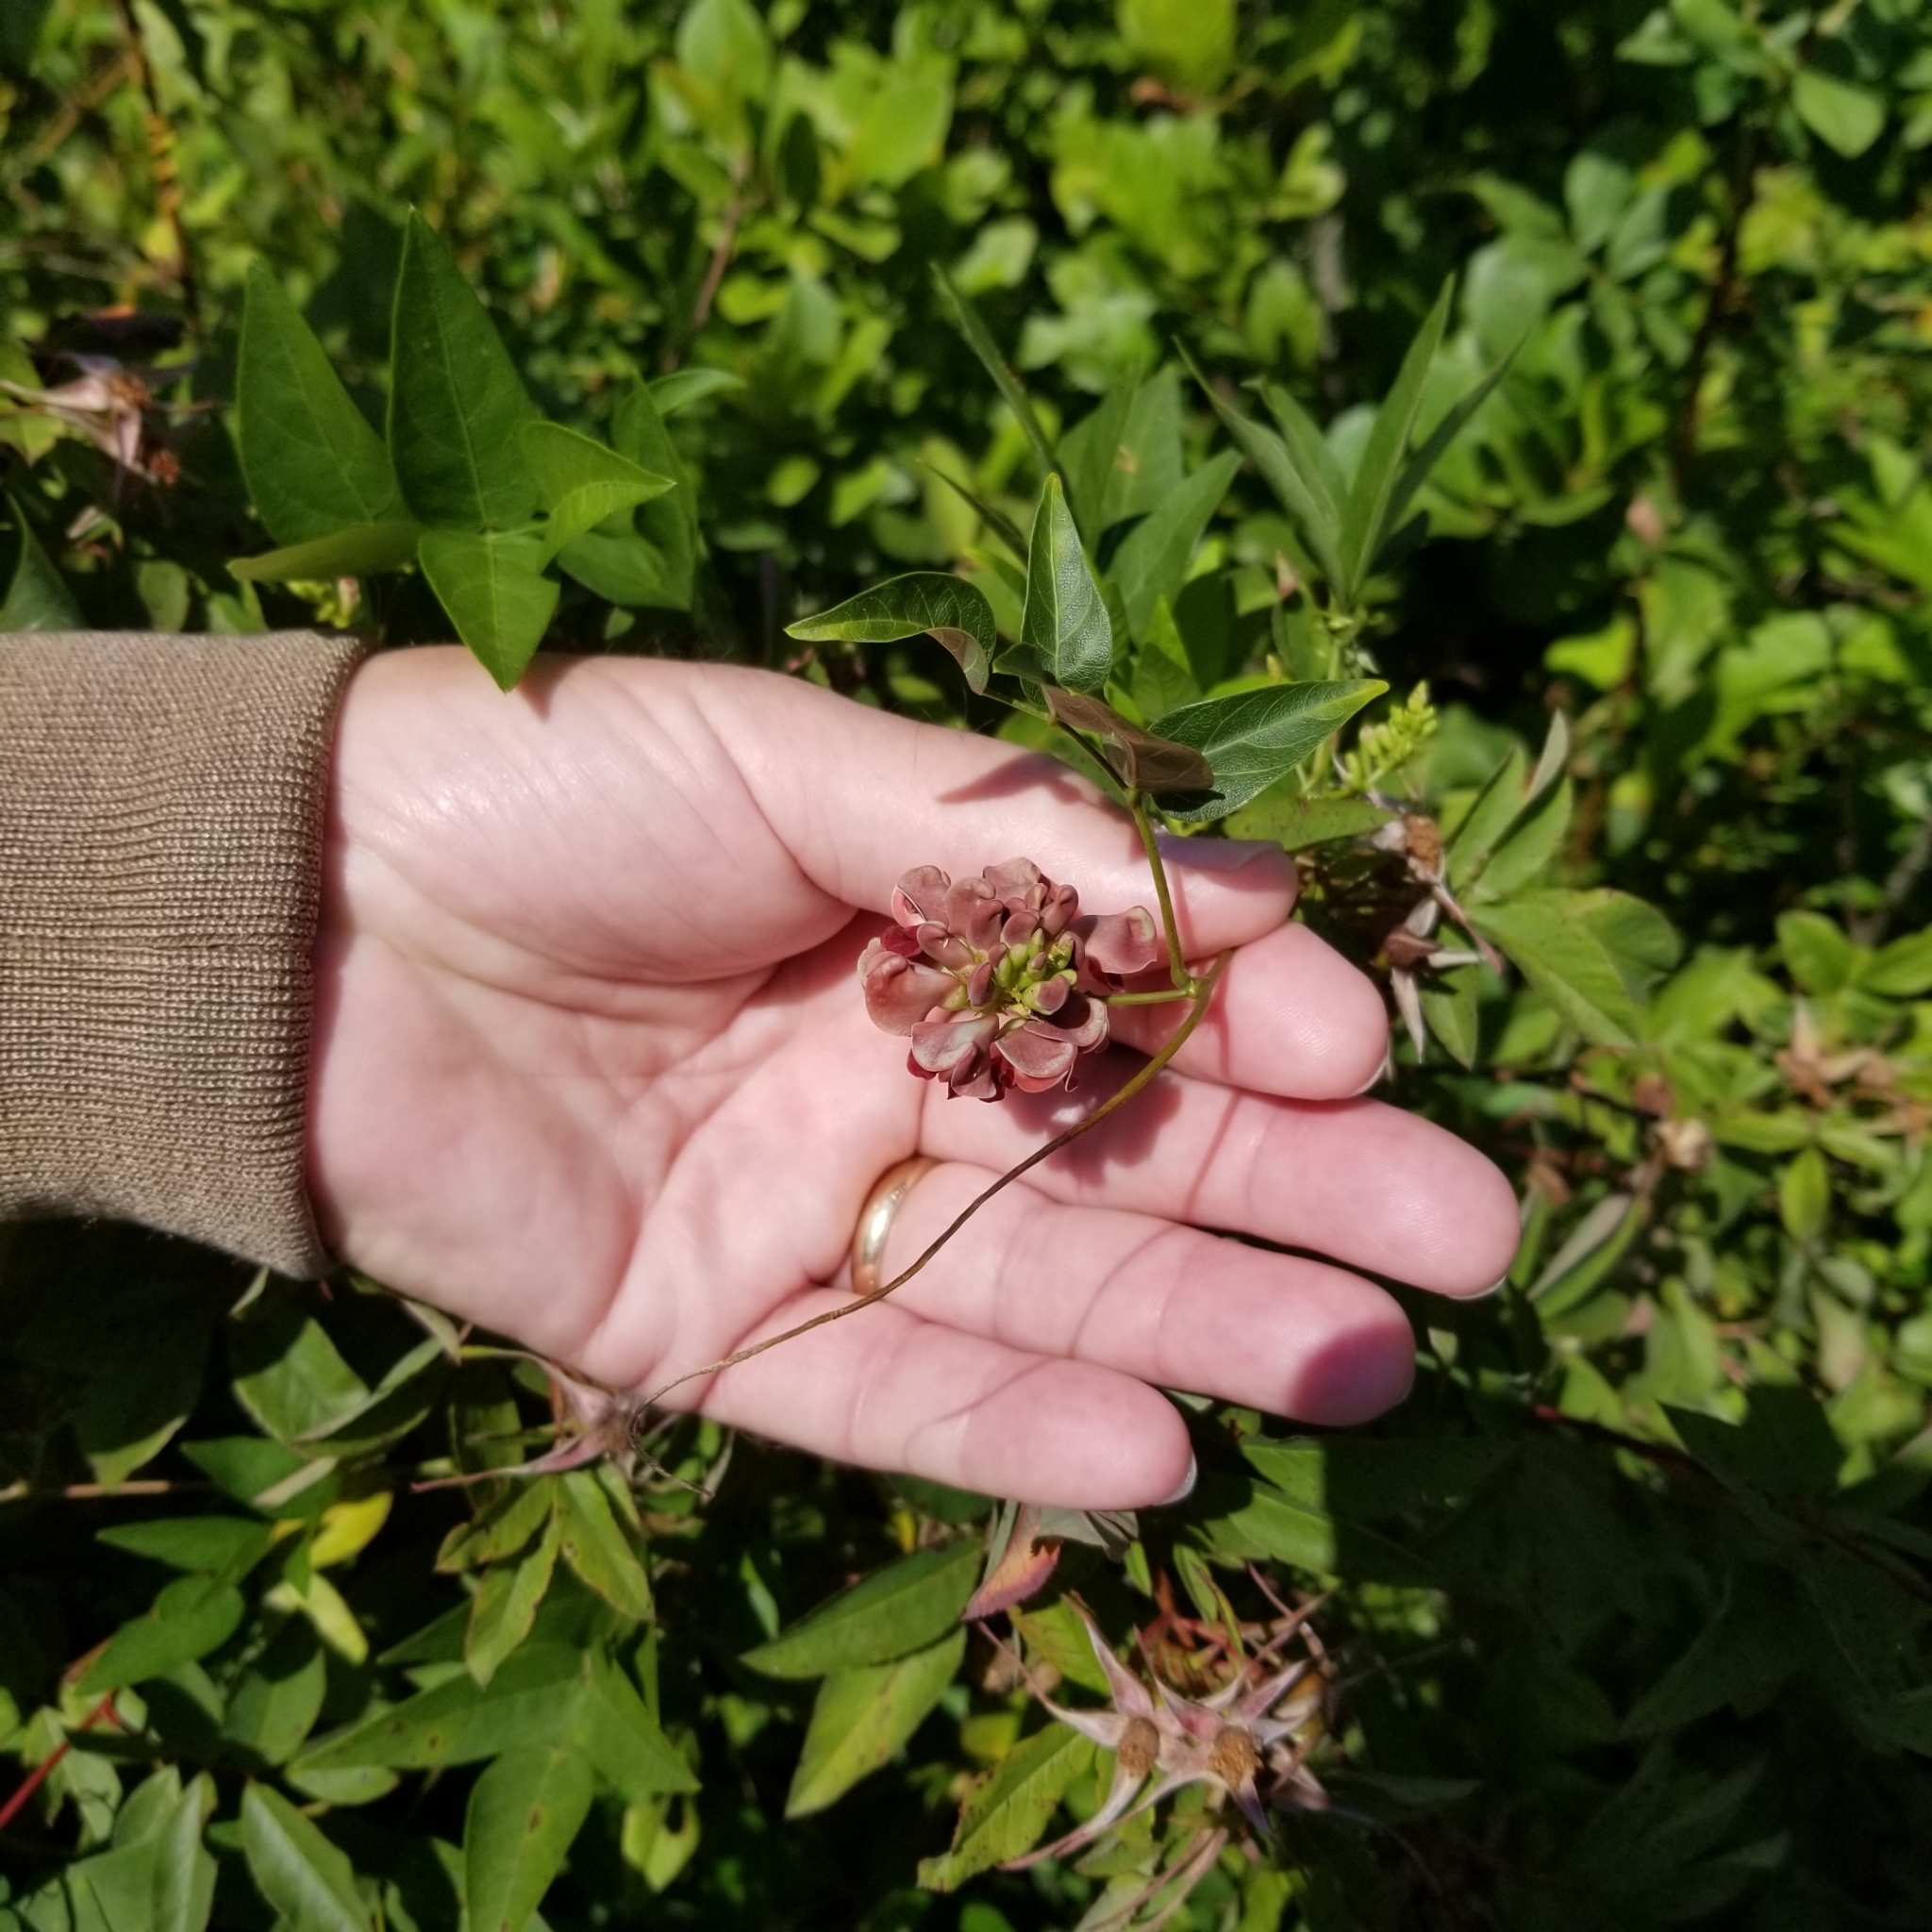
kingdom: Plantae
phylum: Tracheophyta
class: Magnoliopsida
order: Fabales
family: Fabaceae
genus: Apios
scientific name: Apios americana
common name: American potato-bean
